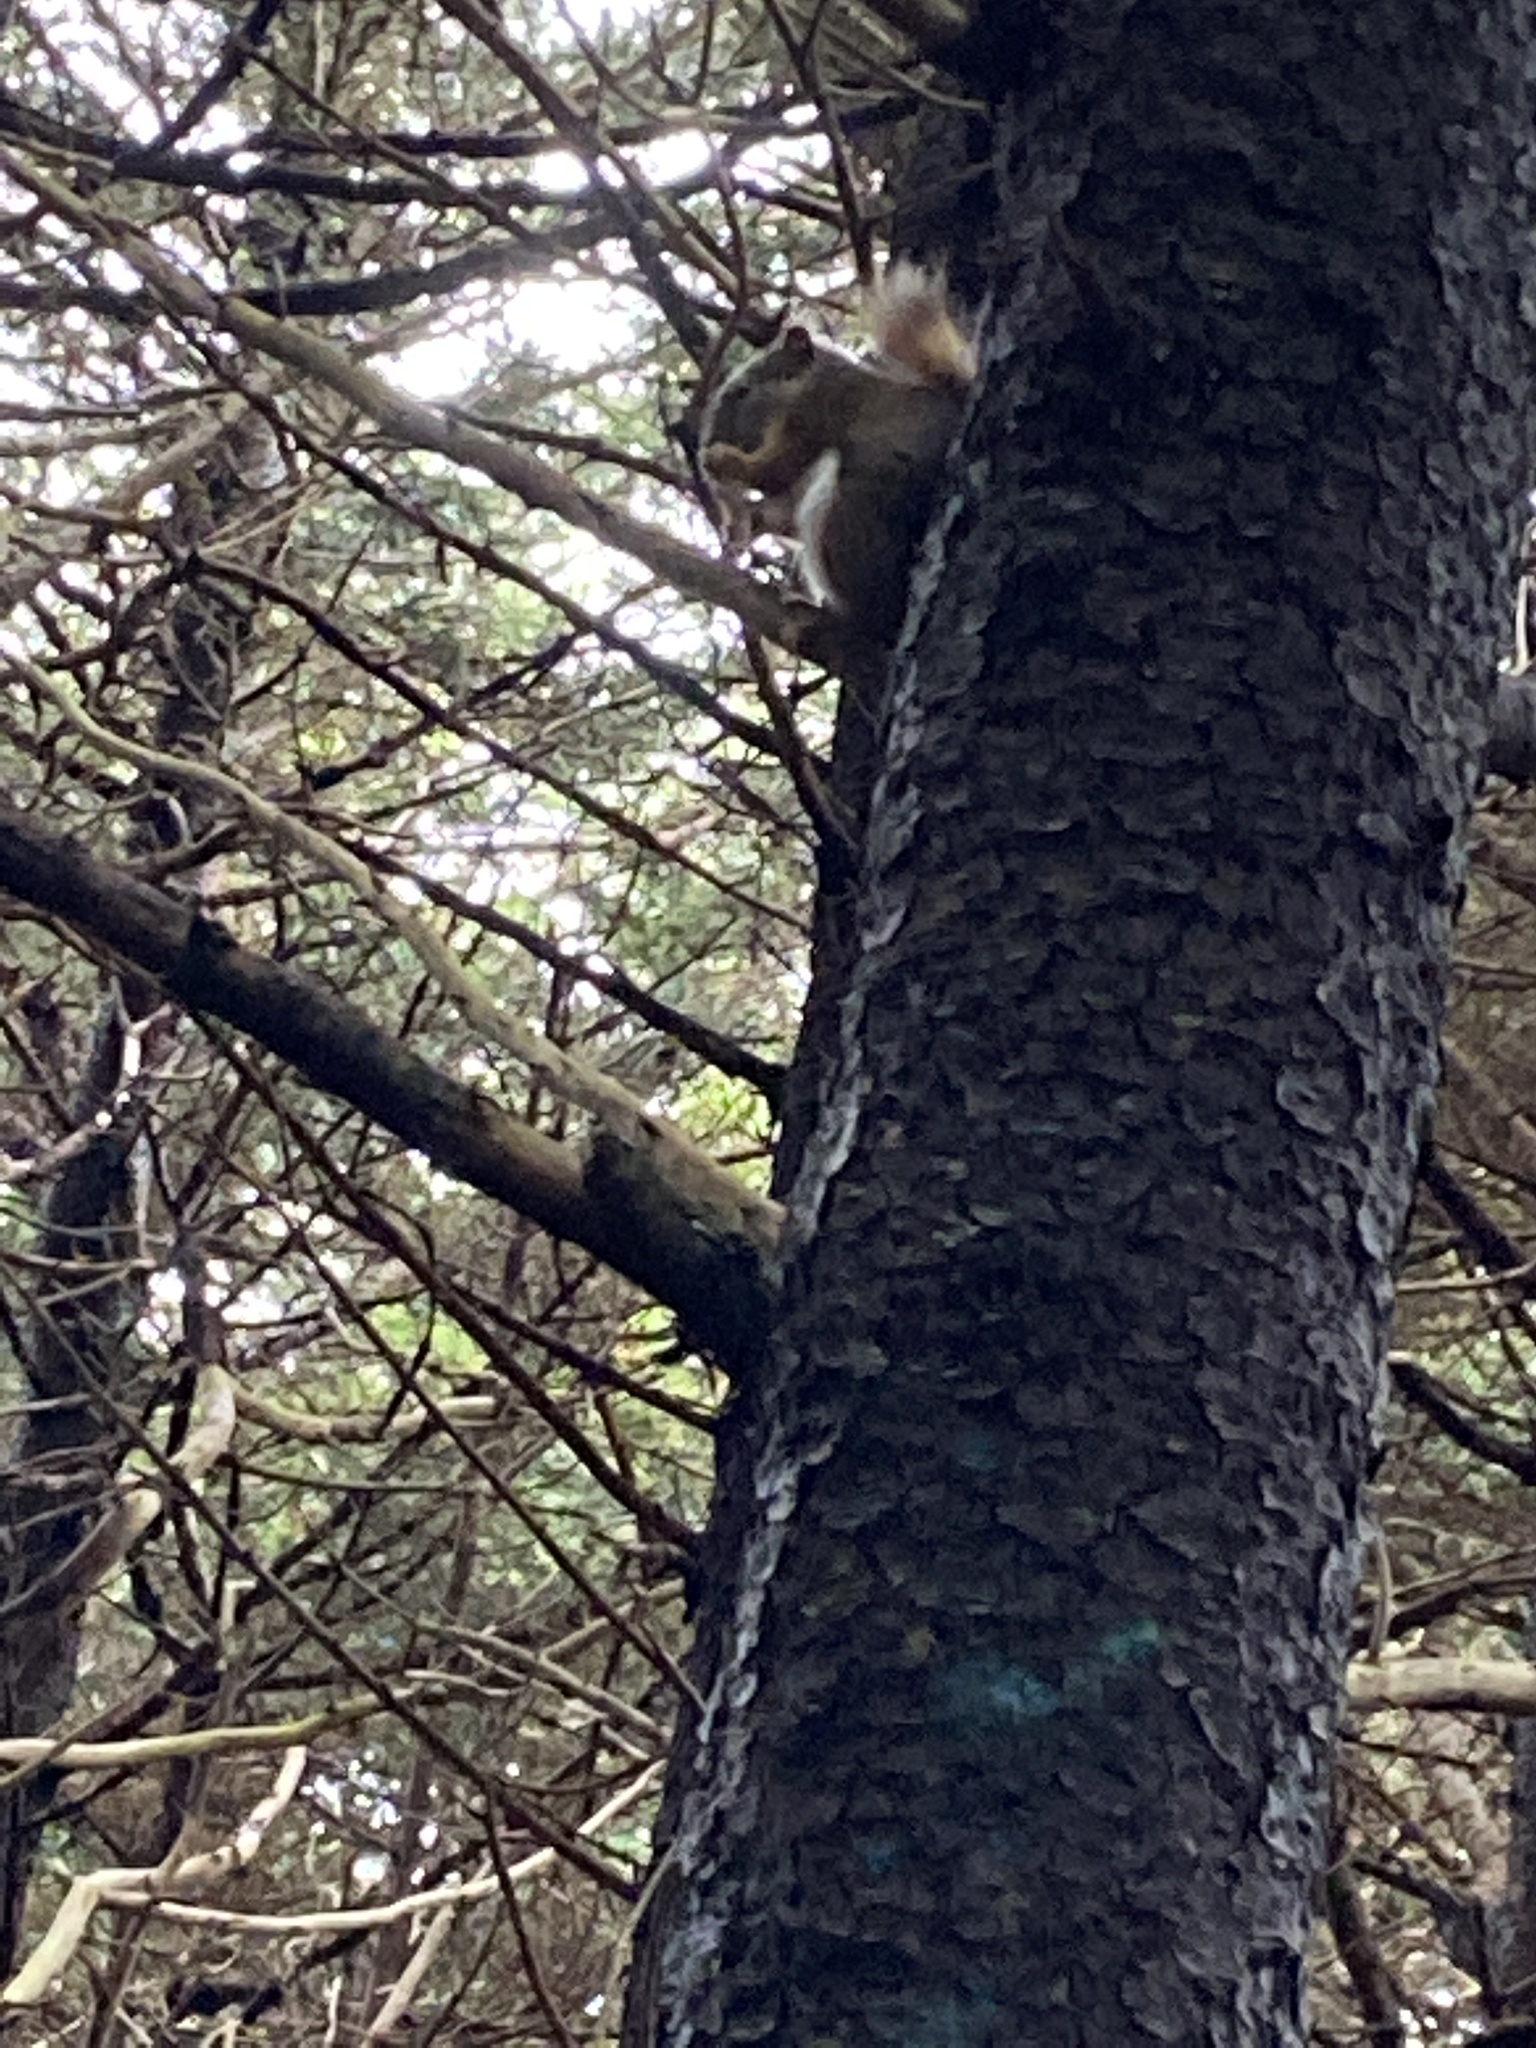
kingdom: Animalia
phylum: Chordata
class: Mammalia
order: Rodentia
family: Sciuridae
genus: Tamiasciurus
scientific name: Tamiasciurus hudsonicus
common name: Red squirrel
